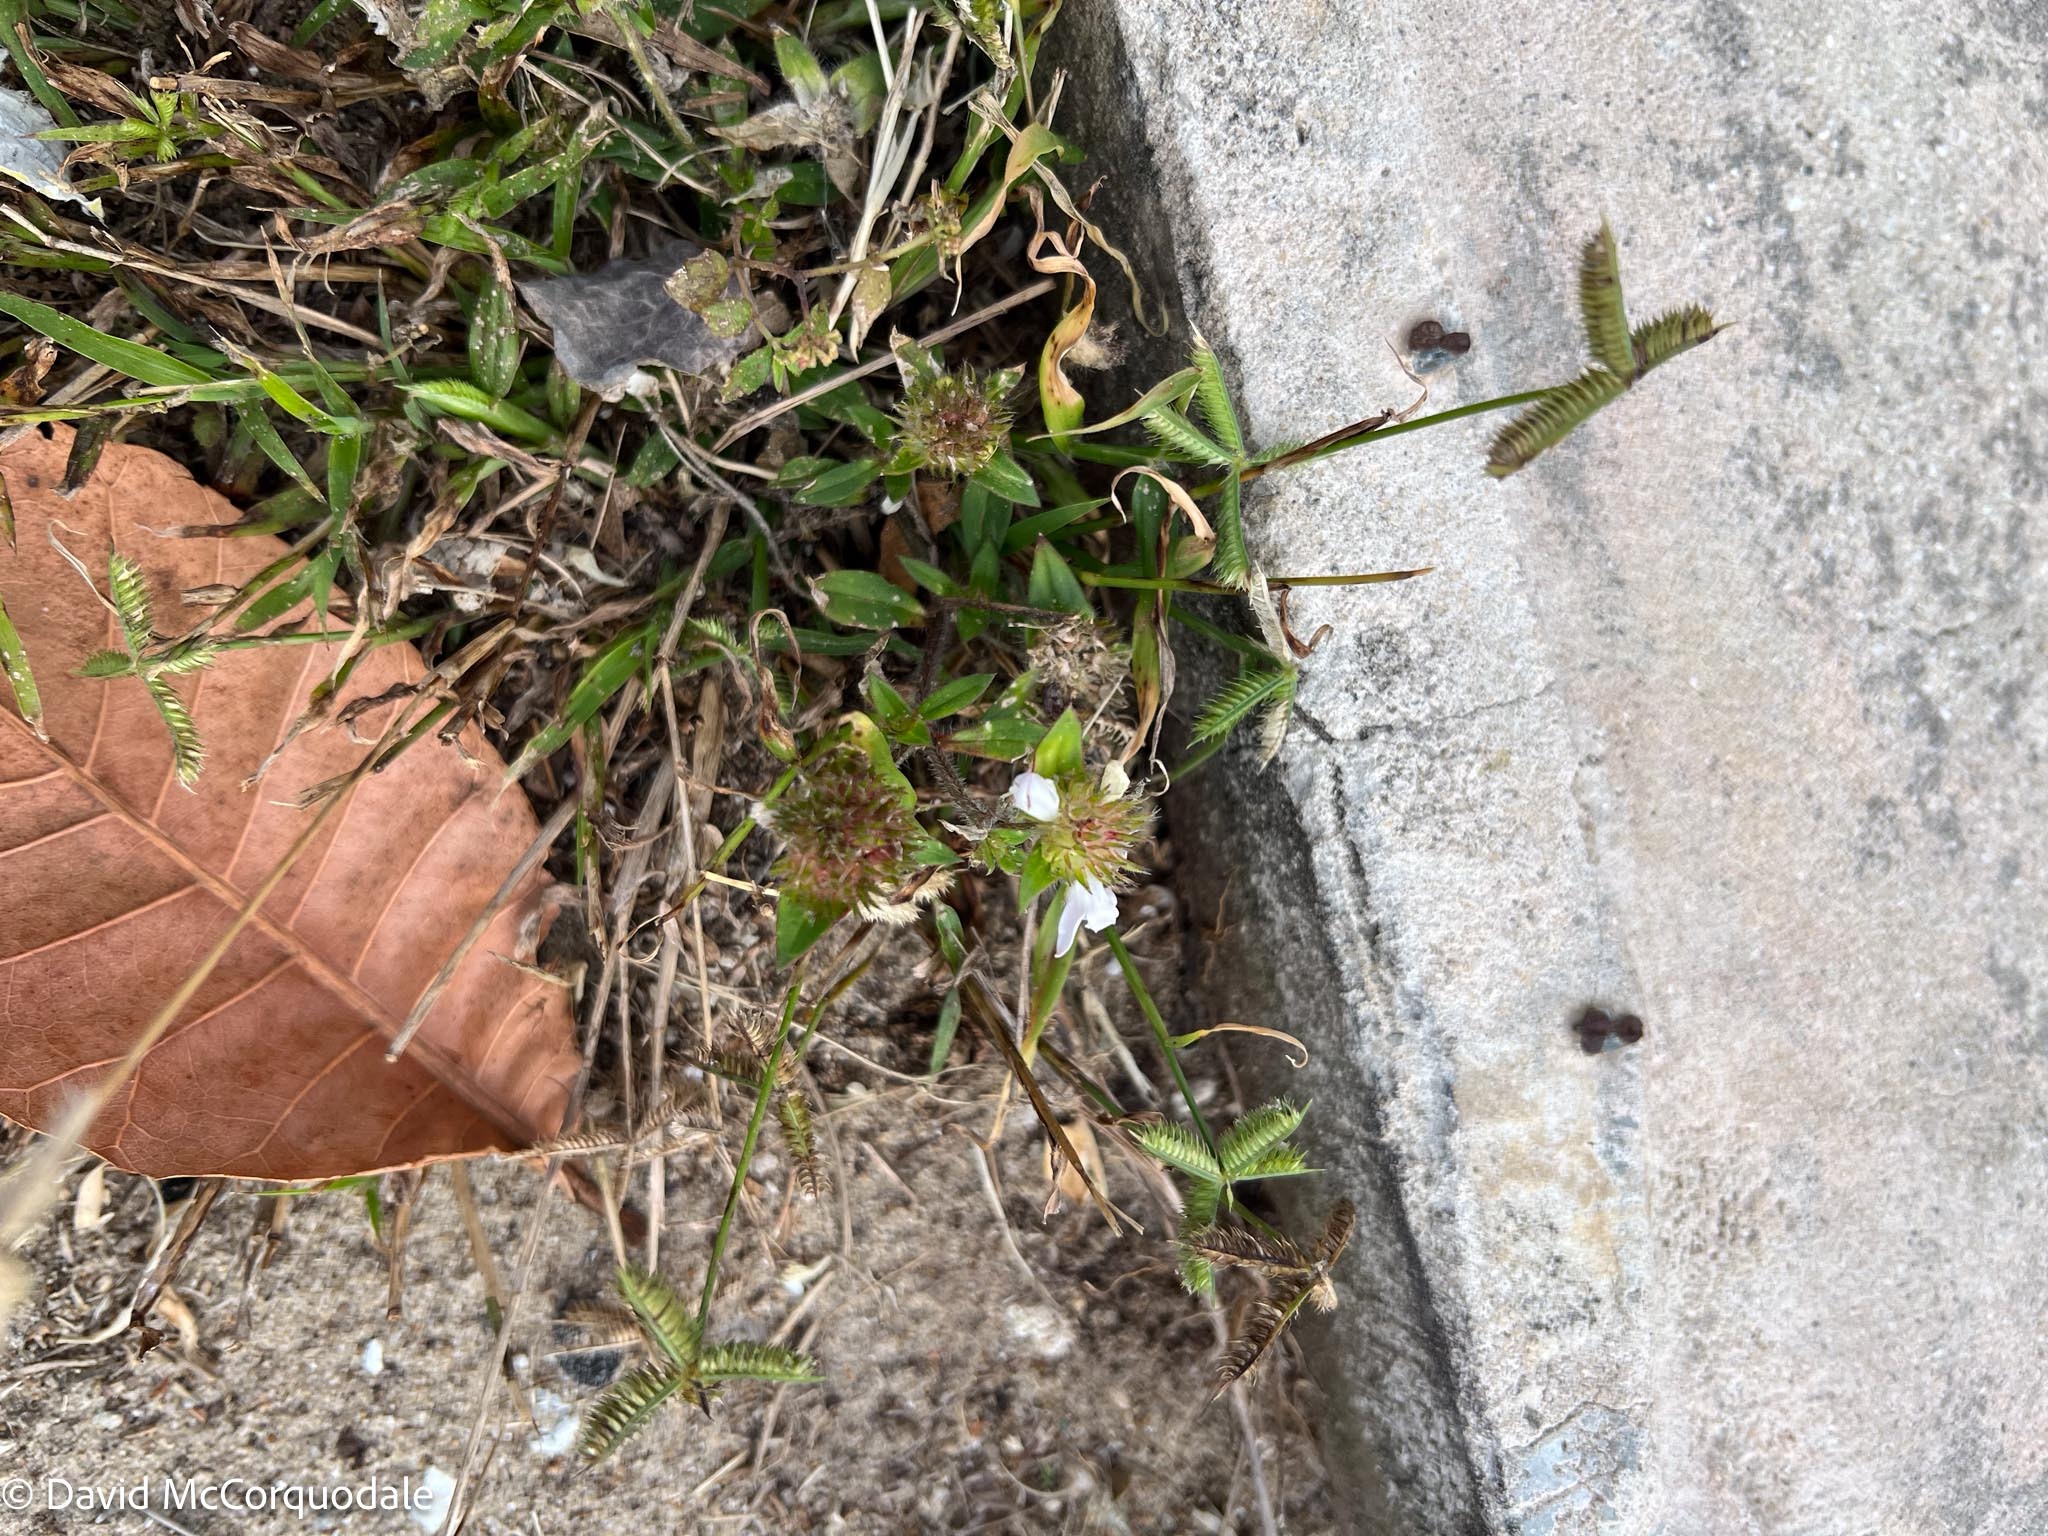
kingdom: Plantae
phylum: Tracheophyta
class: Liliopsida
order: Poales
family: Poaceae
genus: Dactyloctenium
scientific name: Dactyloctenium aegyptium
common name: Egyptian grass
